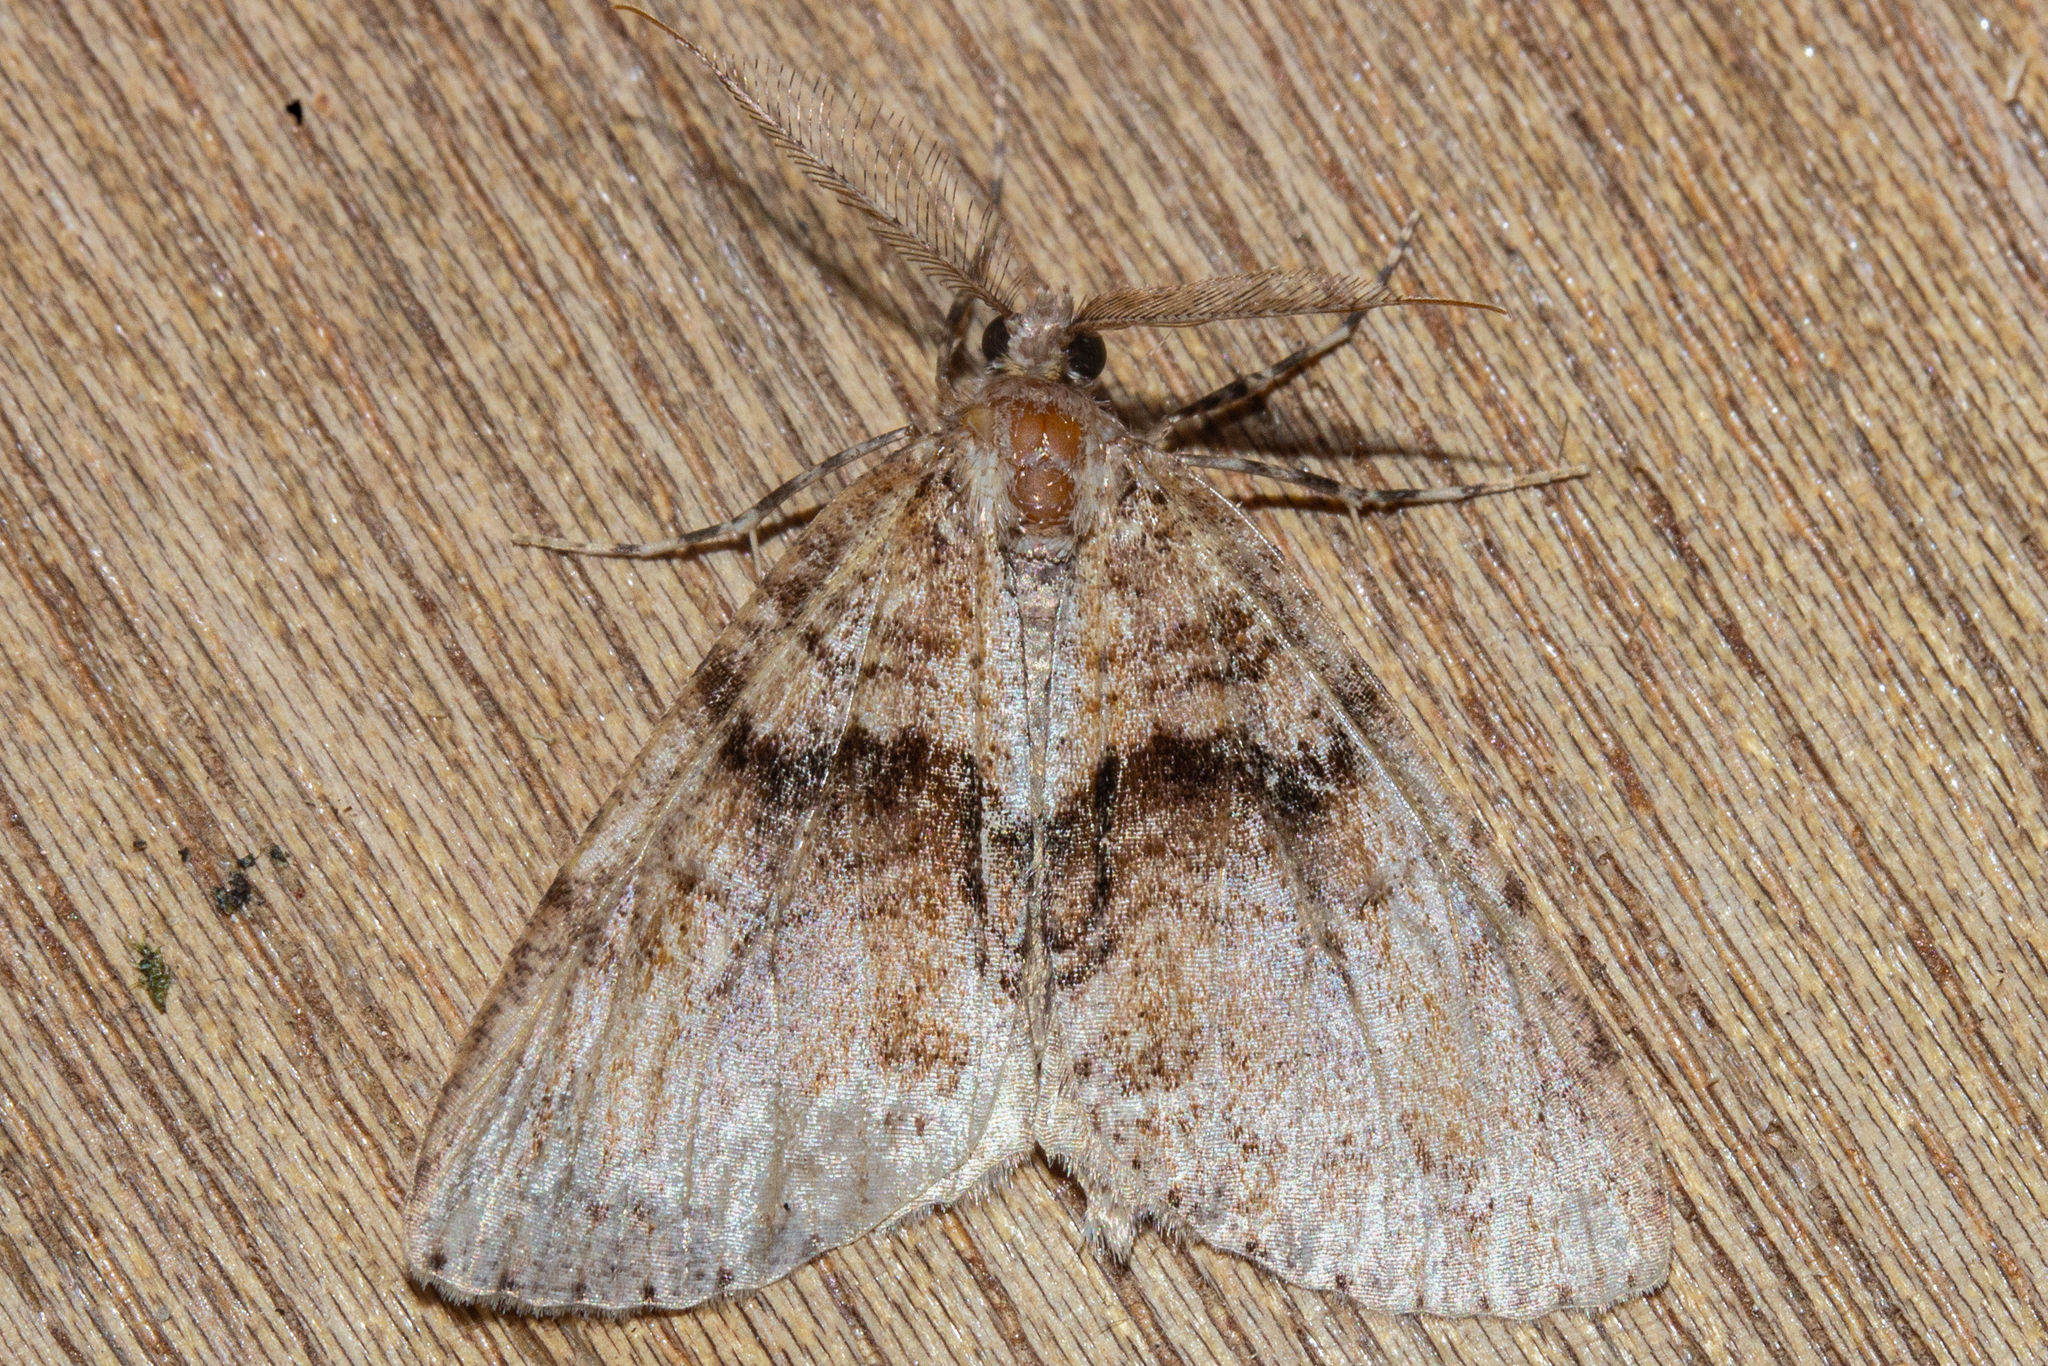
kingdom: Animalia
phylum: Arthropoda
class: Insecta
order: Lepidoptera
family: Geometridae
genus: Pseudocoremia
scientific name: Pseudocoremia suavis
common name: Common forest looper
